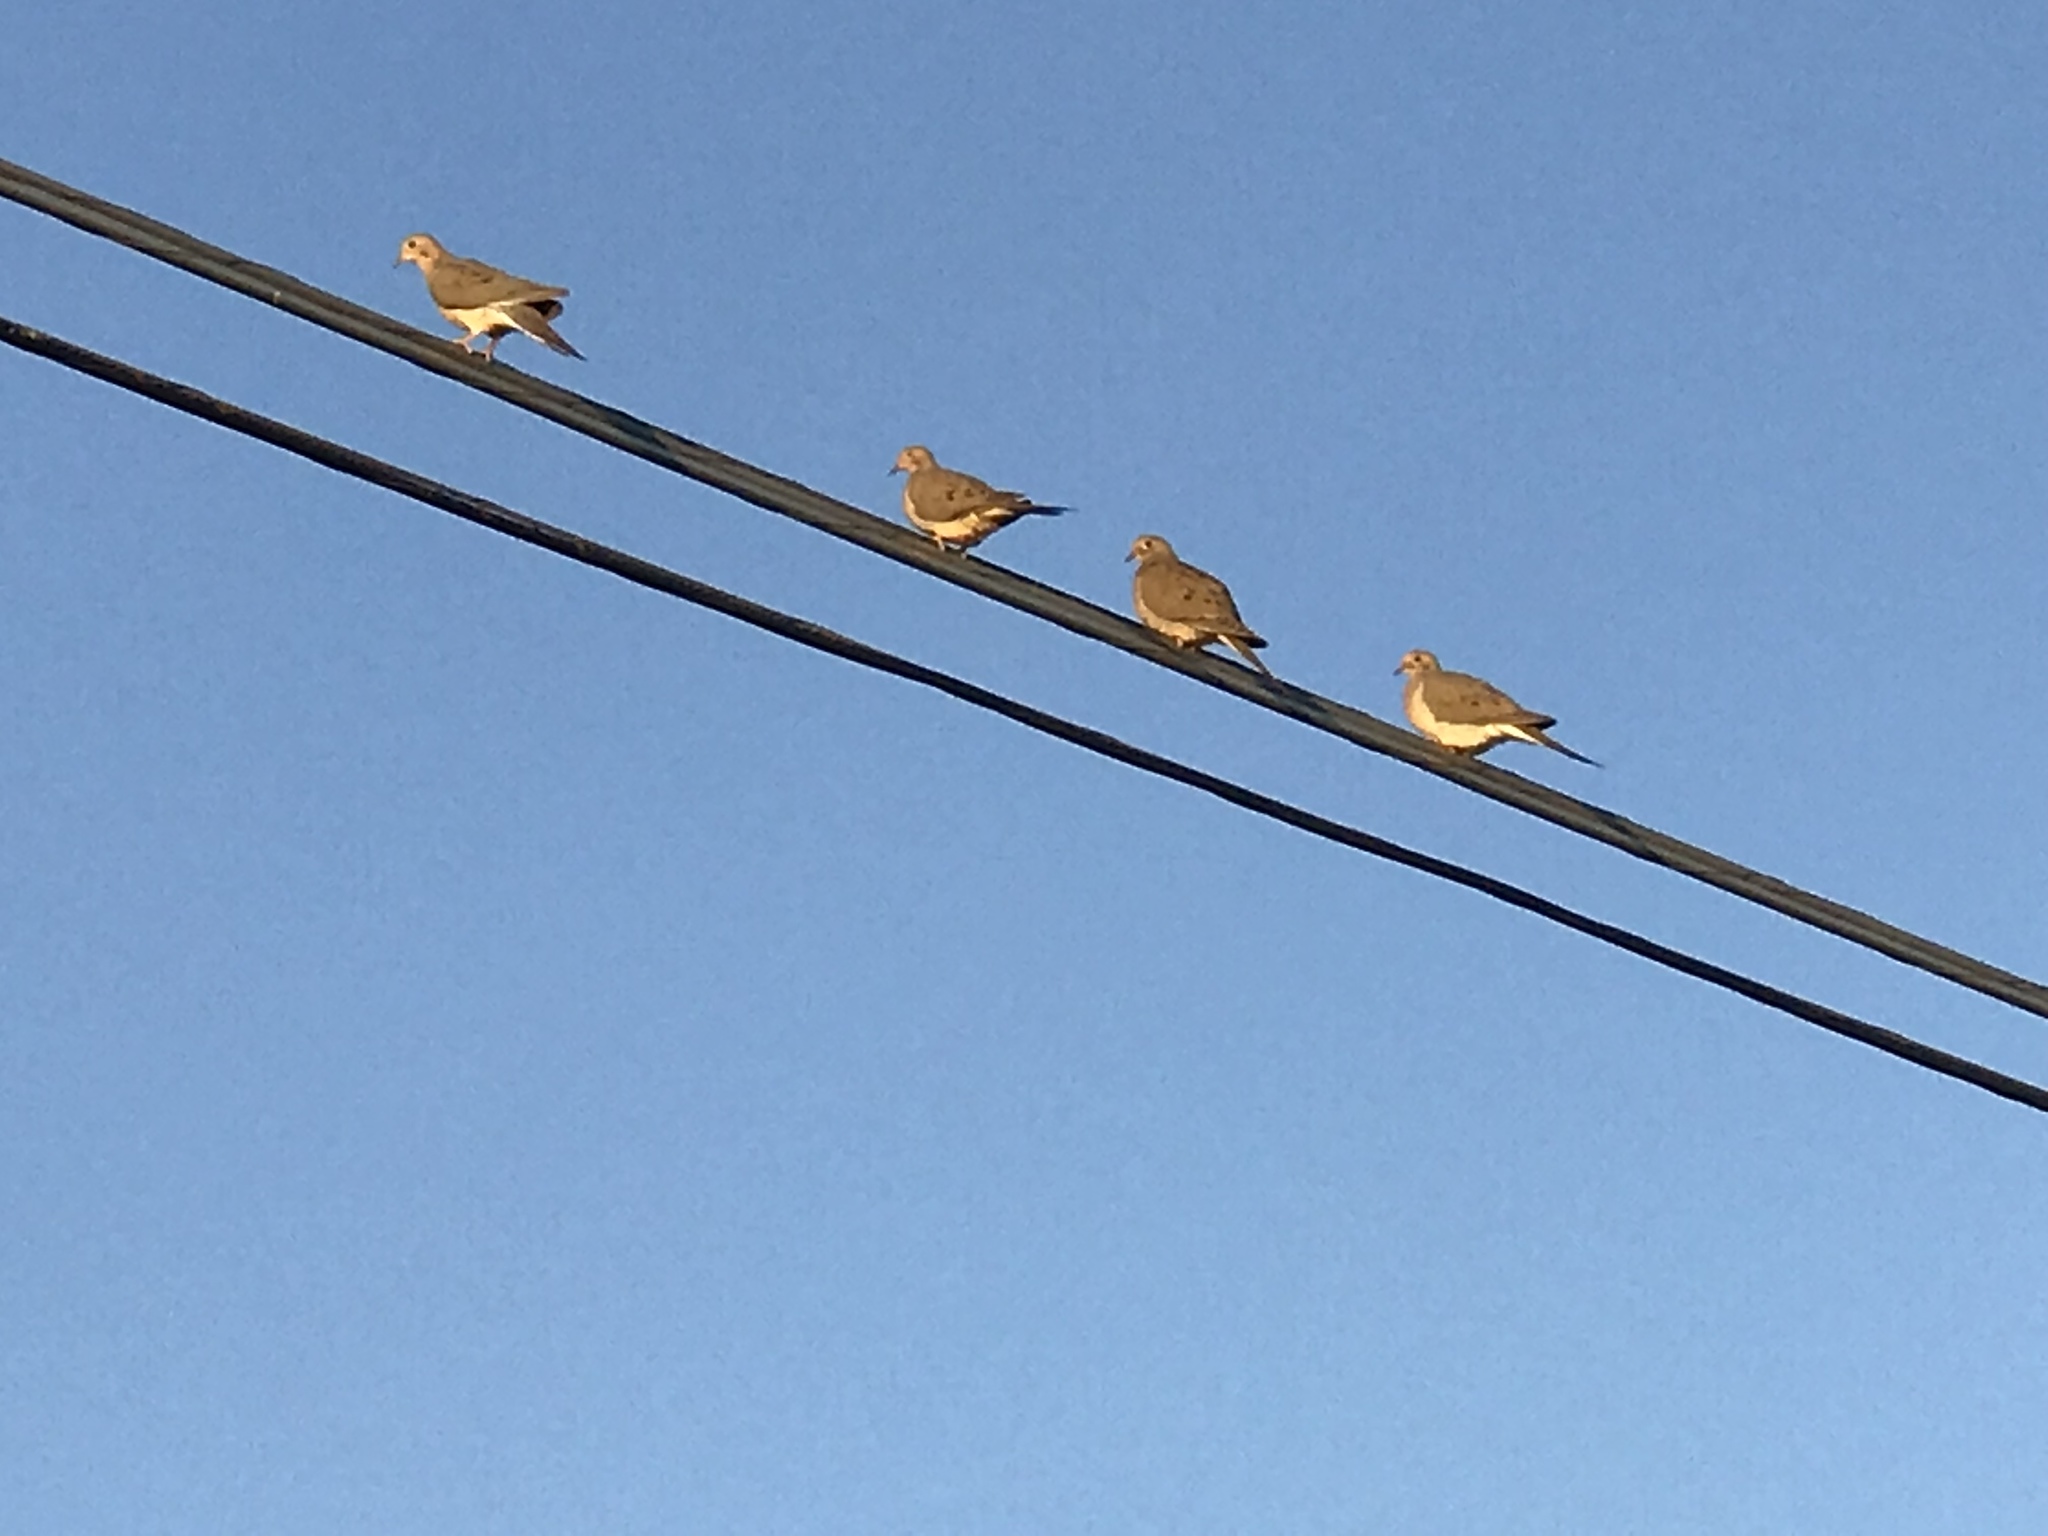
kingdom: Animalia
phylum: Chordata
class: Aves
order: Columbiformes
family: Columbidae
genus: Zenaida
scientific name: Zenaida macroura
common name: Mourning dove
